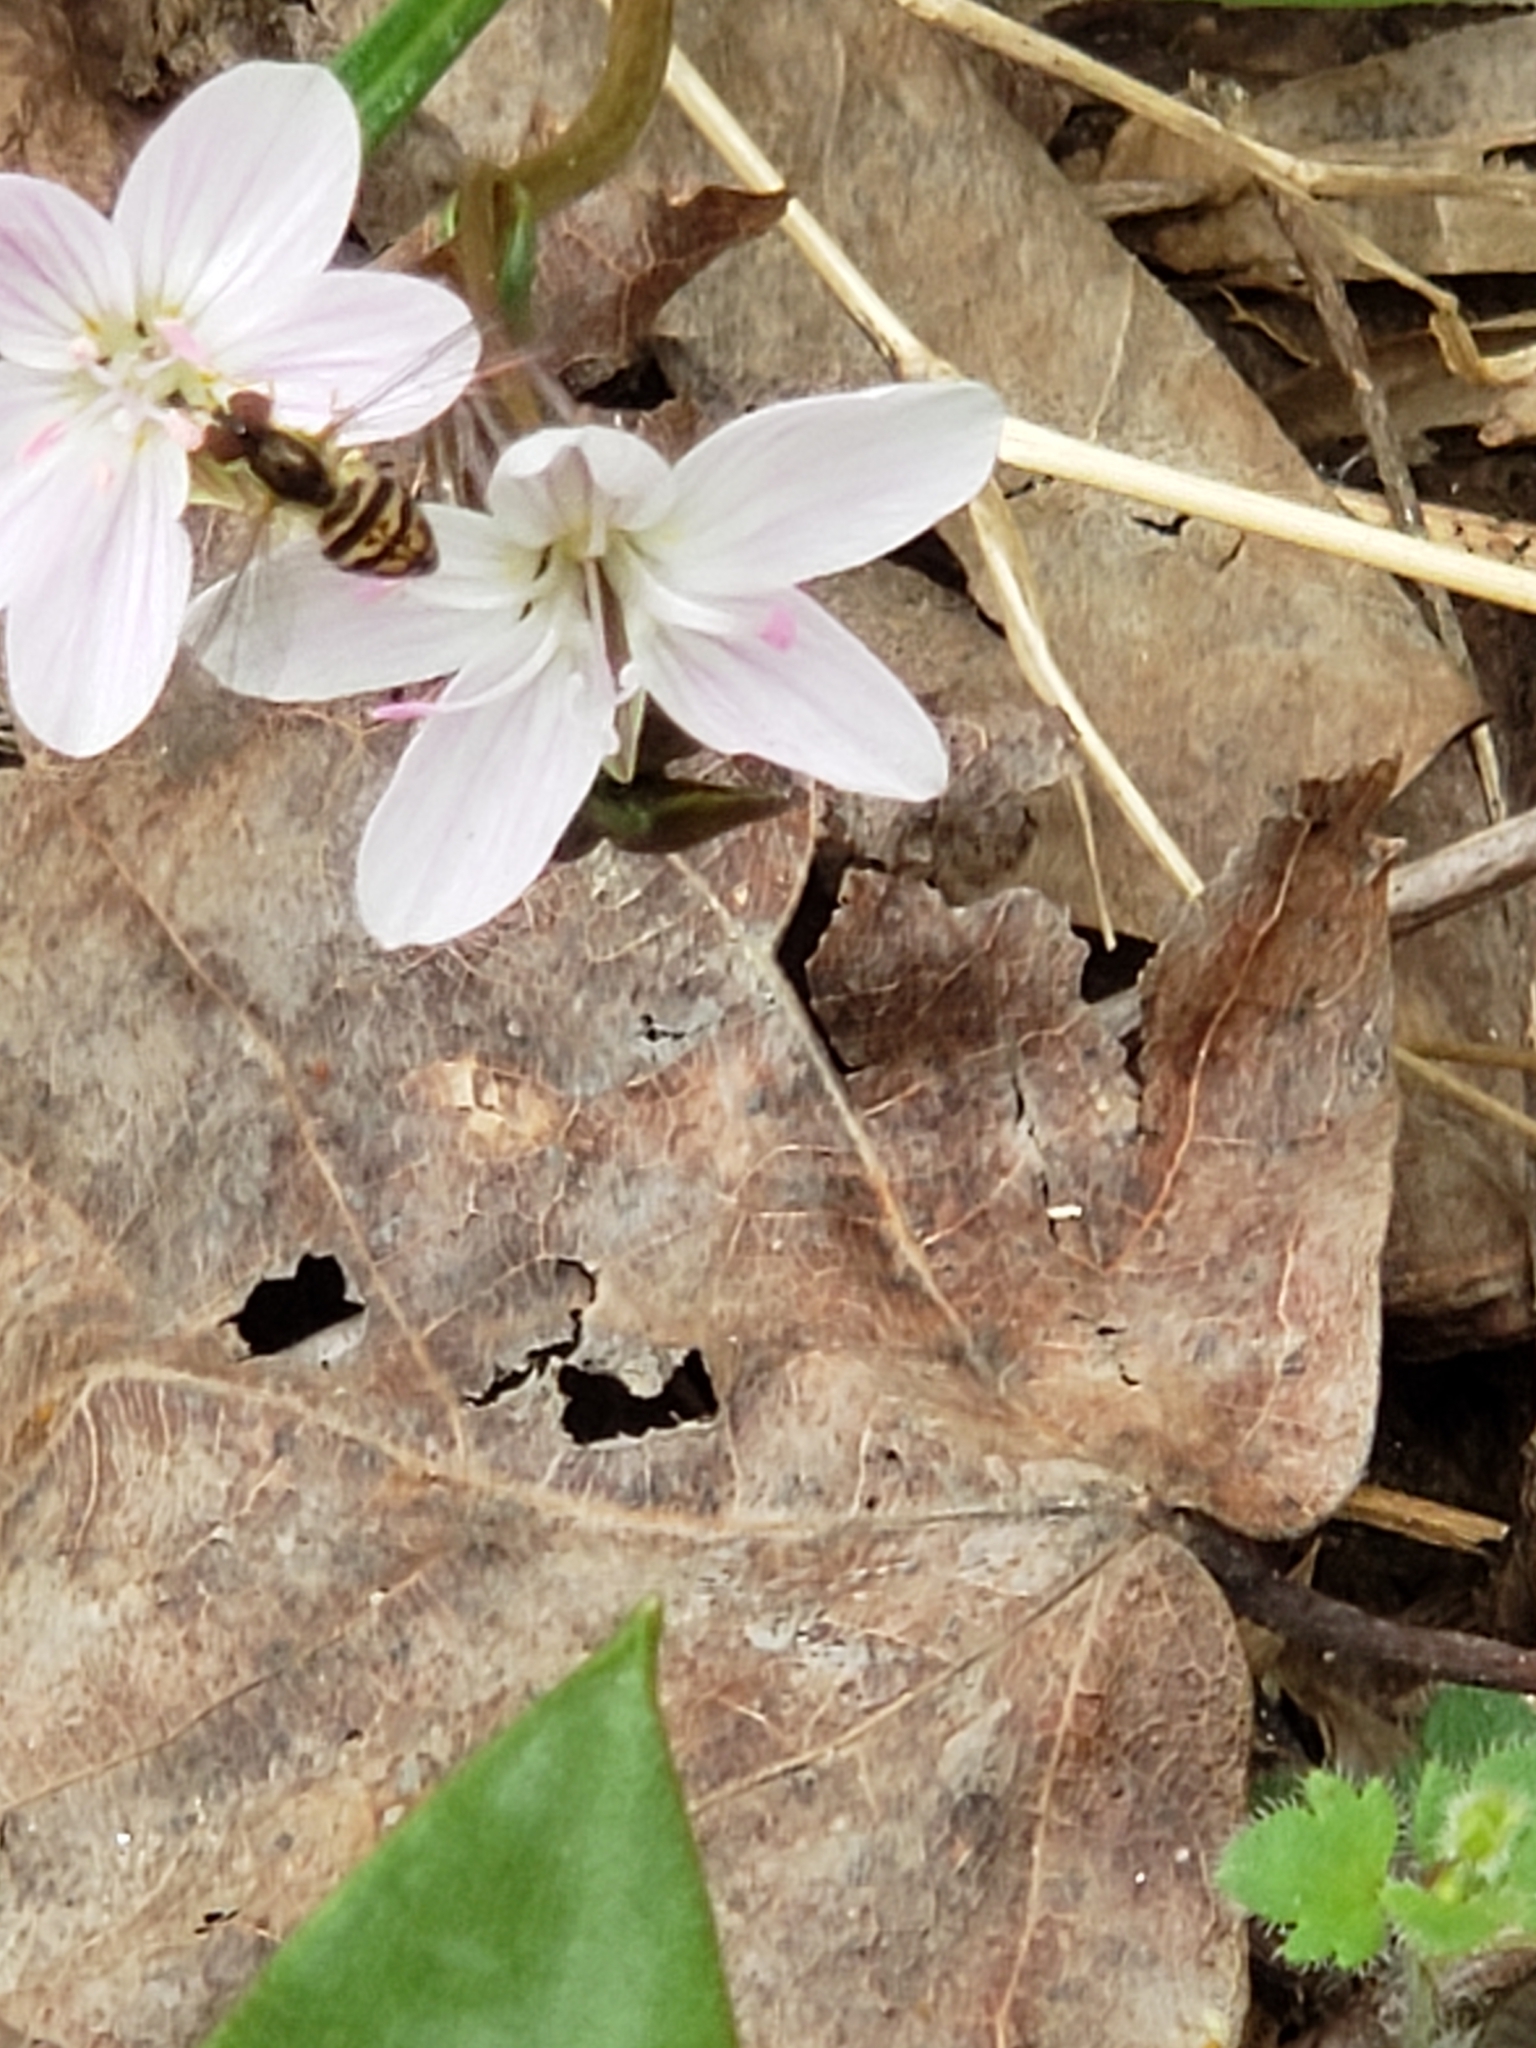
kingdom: Animalia
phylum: Arthropoda
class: Insecta
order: Diptera
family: Syrphidae
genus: Toxomerus
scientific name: Toxomerus geminatus
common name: Eastern calligrapher
